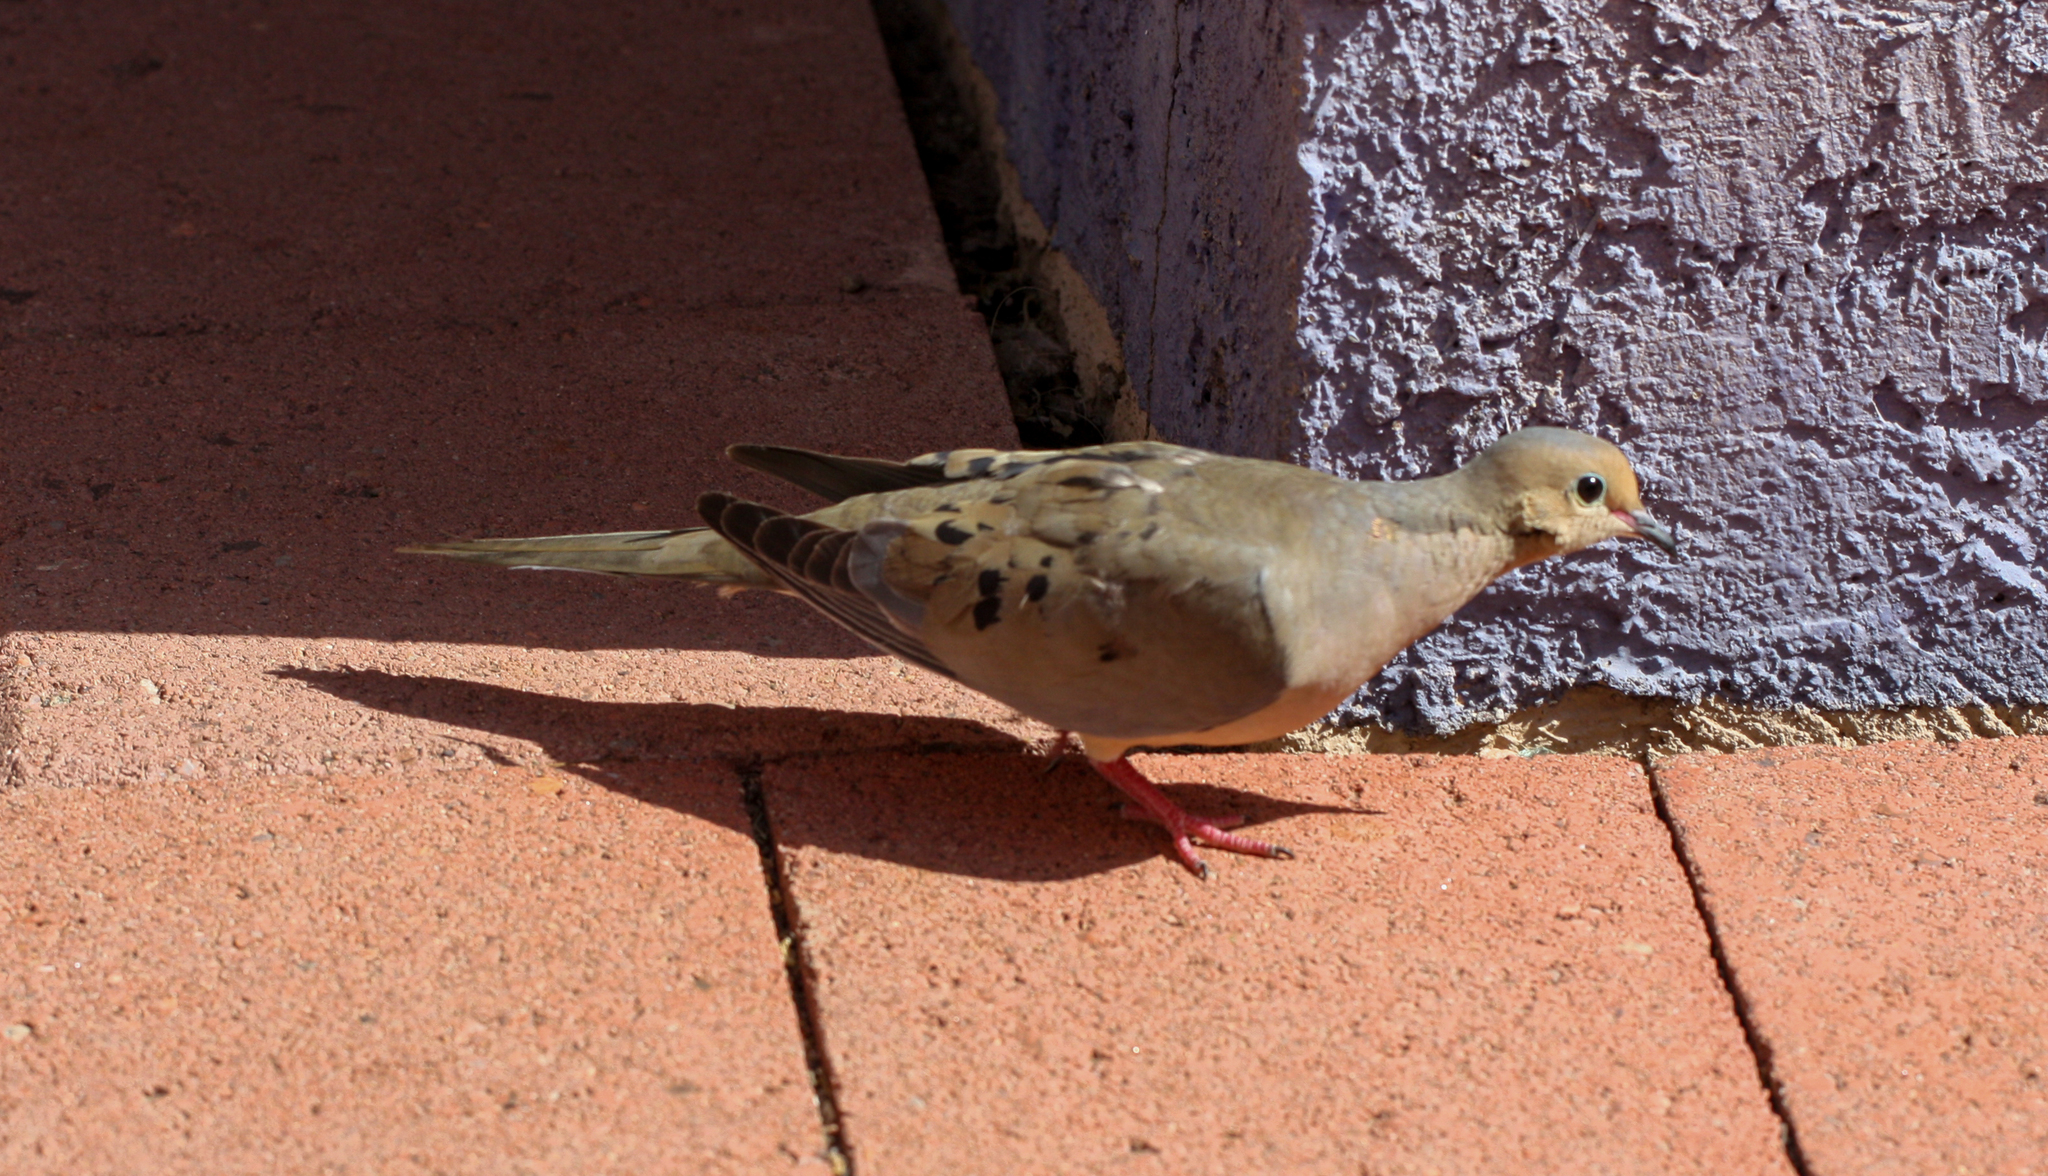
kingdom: Animalia
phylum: Chordata
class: Aves
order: Columbiformes
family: Columbidae
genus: Zenaida
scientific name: Zenaida macroura
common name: Mourning dove
